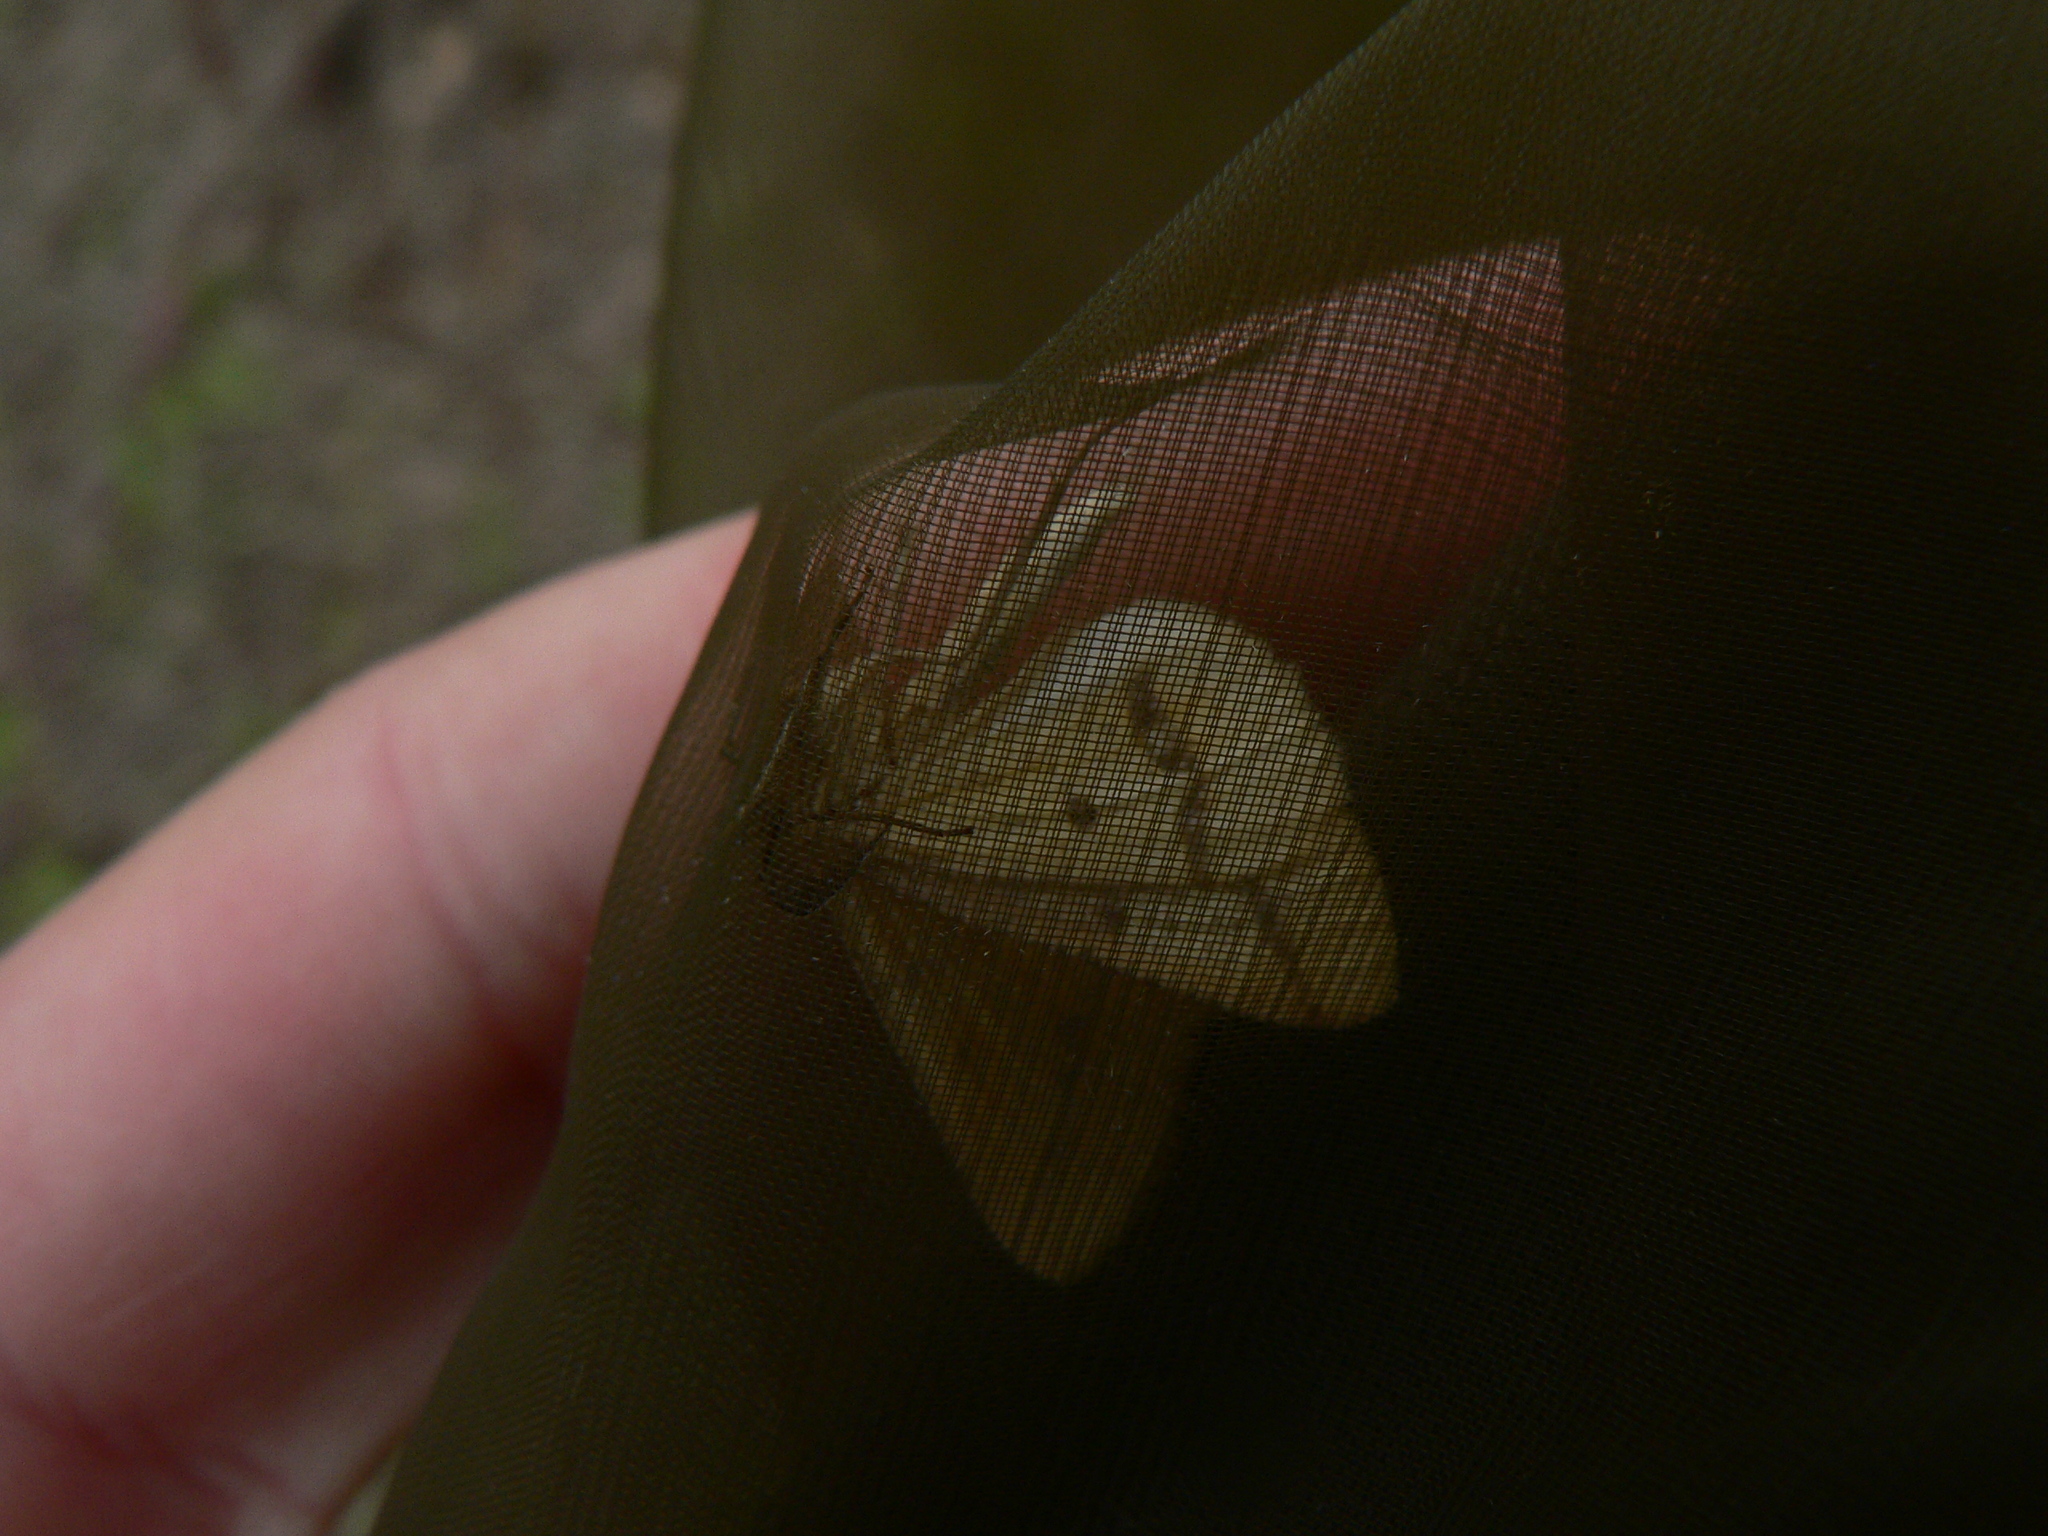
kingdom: Animalia
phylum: Arthropoda
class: Insecta
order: Lepidoptera
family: Geometridae
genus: Aspitates
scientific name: Aspitates ochrearia
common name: Yellow belle
